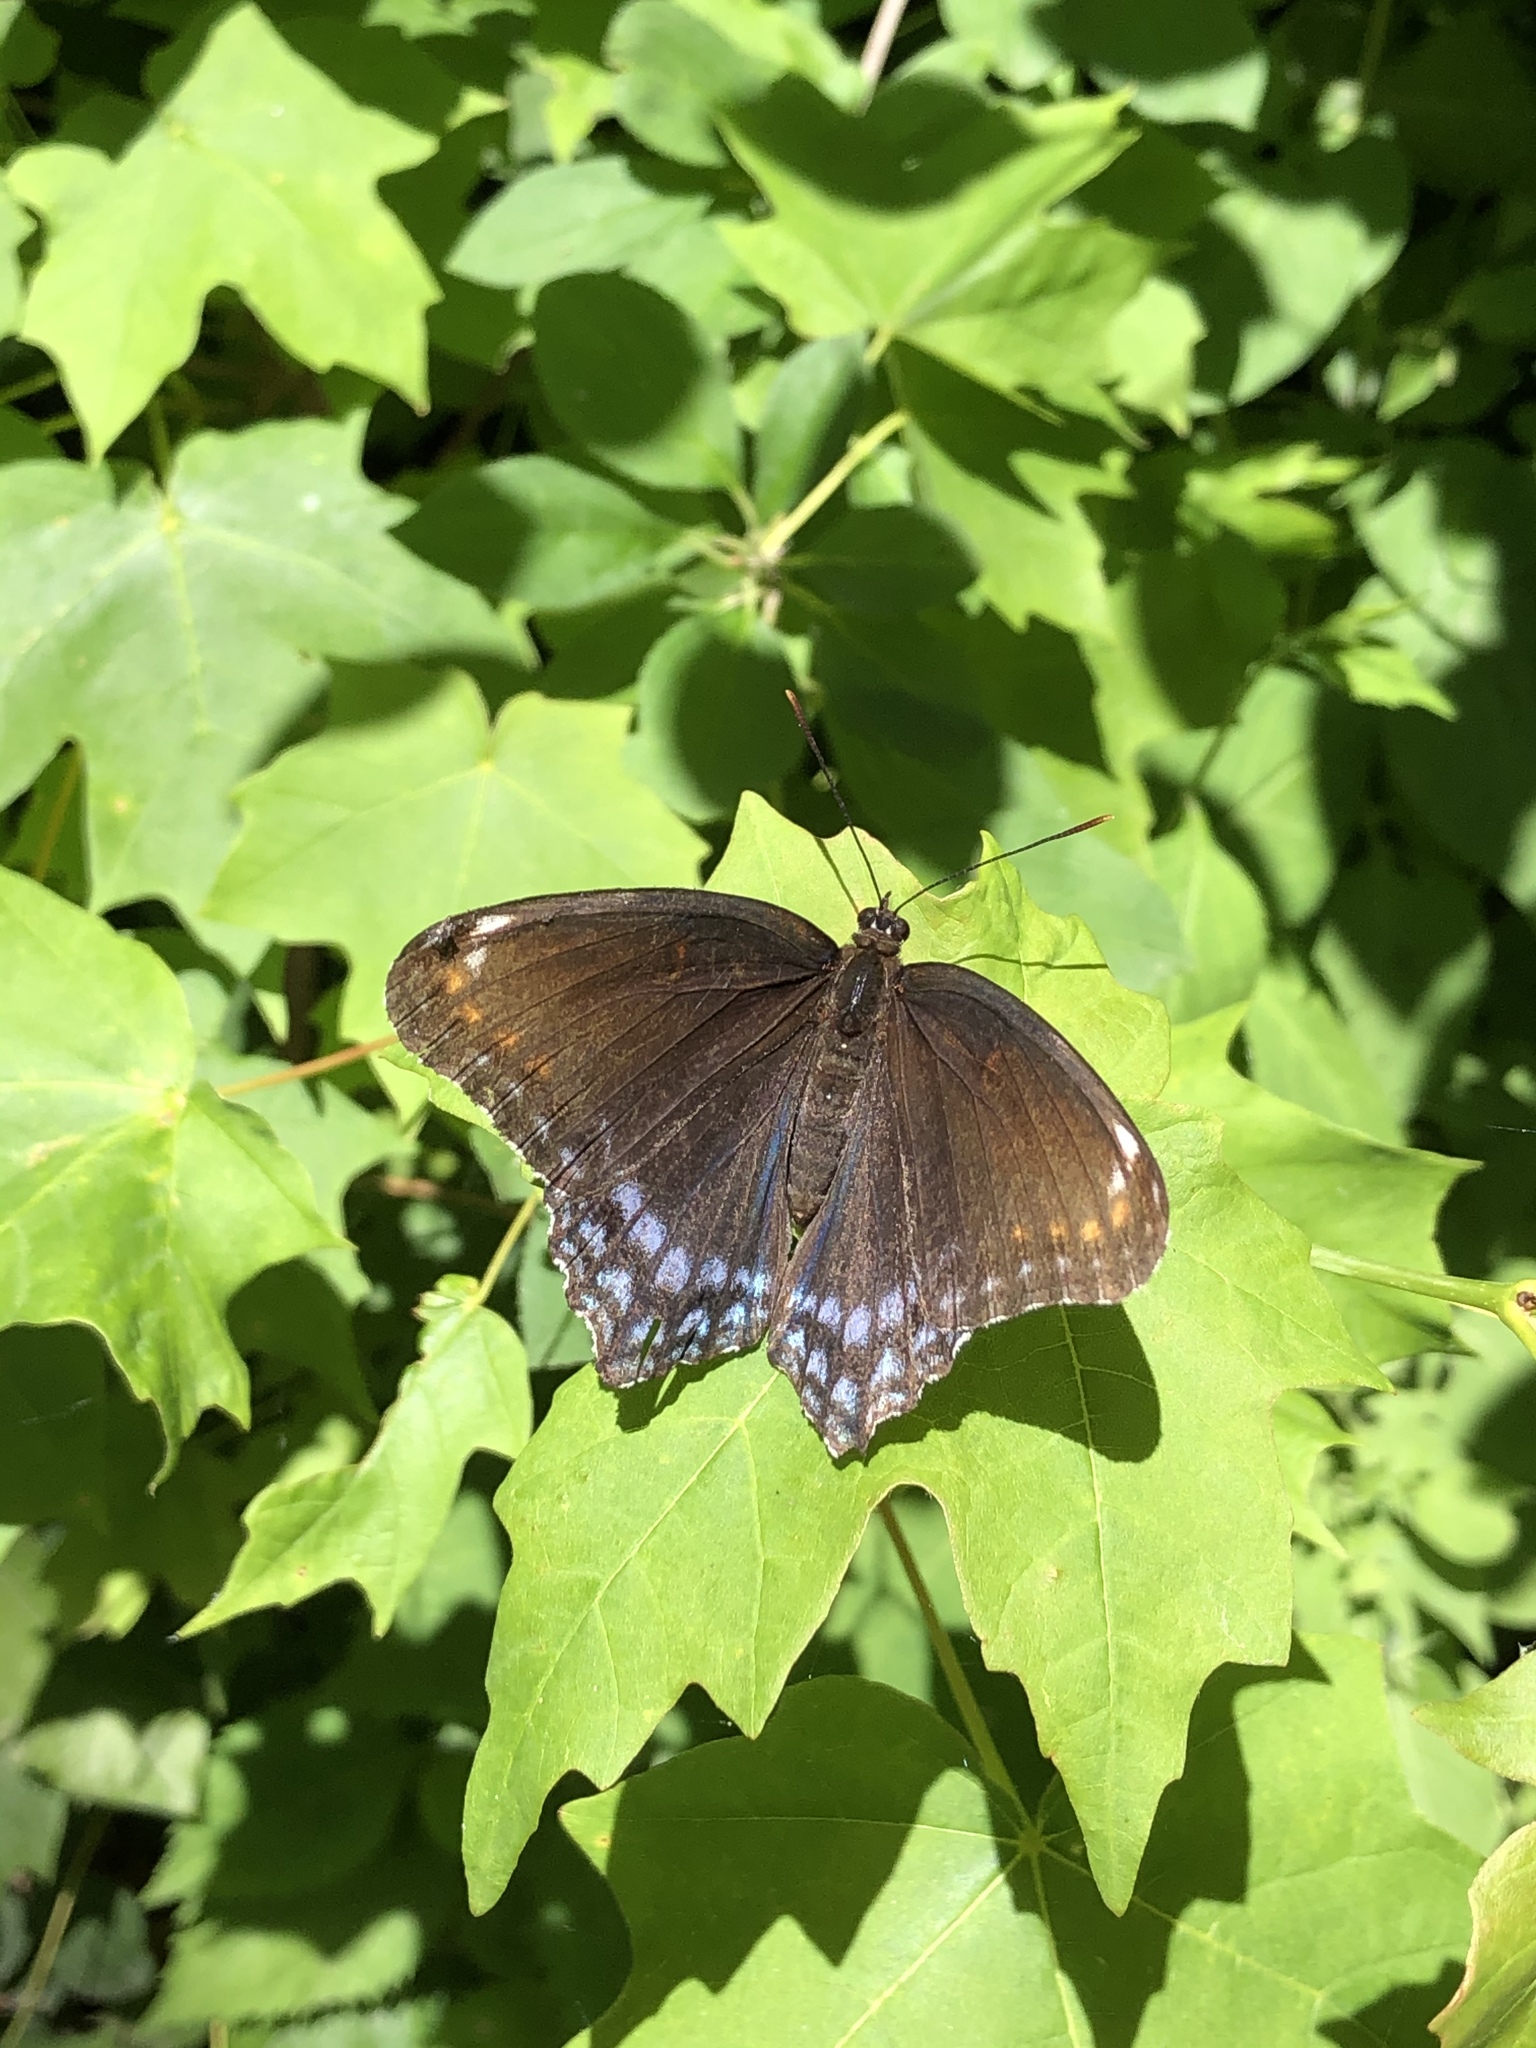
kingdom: Animalia
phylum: Arthropoda
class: Insecta
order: Lepidoptera
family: Nymphalidae
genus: Limenitis
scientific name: Limenitis astyanax
